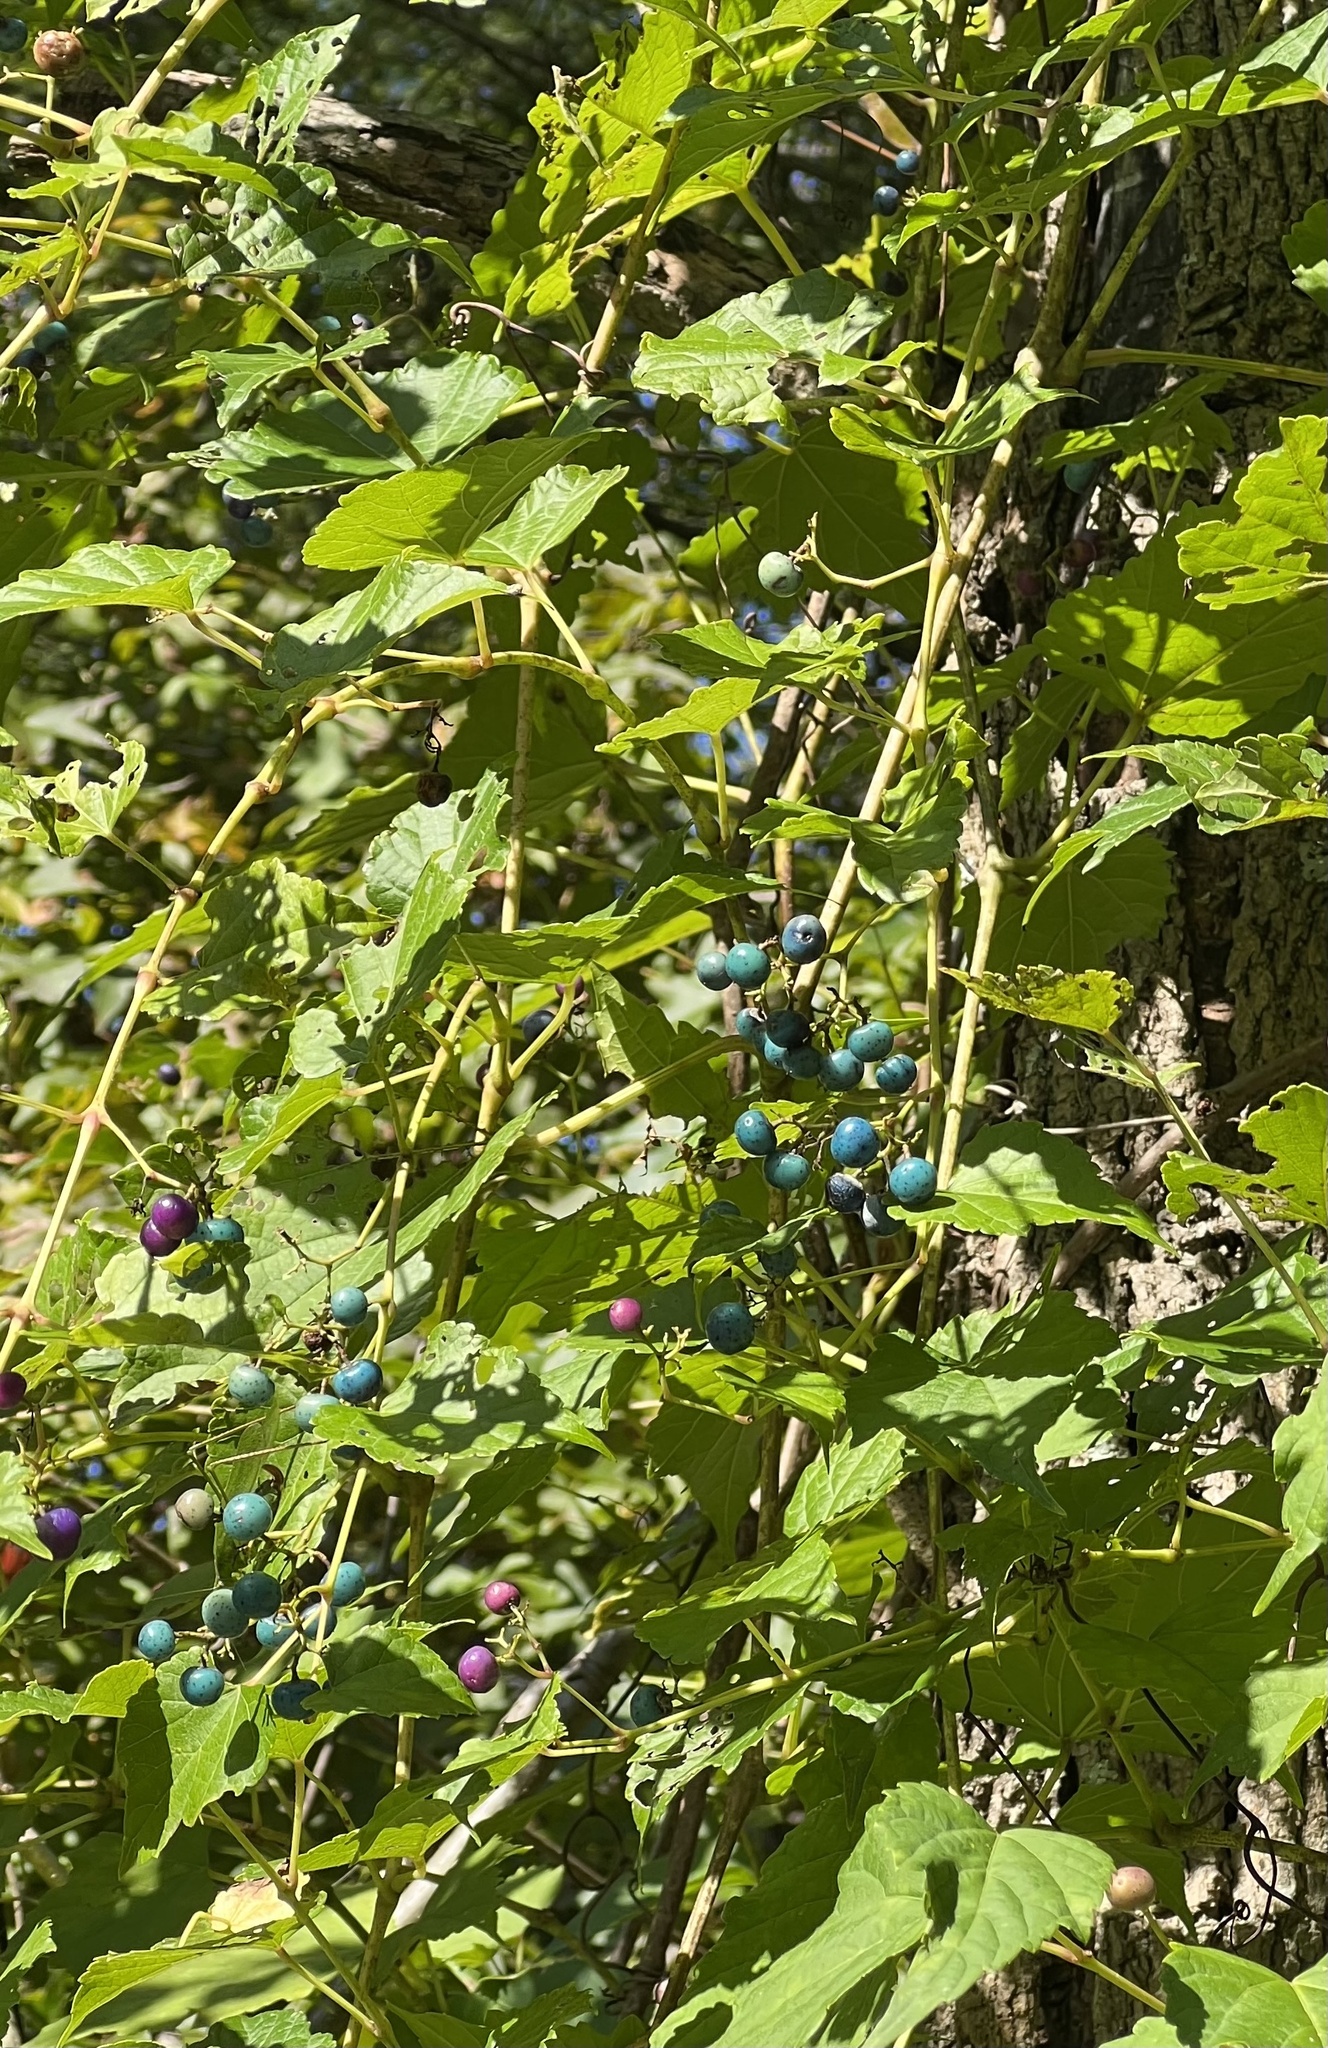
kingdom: Plantae
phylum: Tracheophyta
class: Magnoliopsida
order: Vitales
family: Vitaceae
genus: Ampelopsis
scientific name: Ampelopsis glandulosa
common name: Amur peppervine
